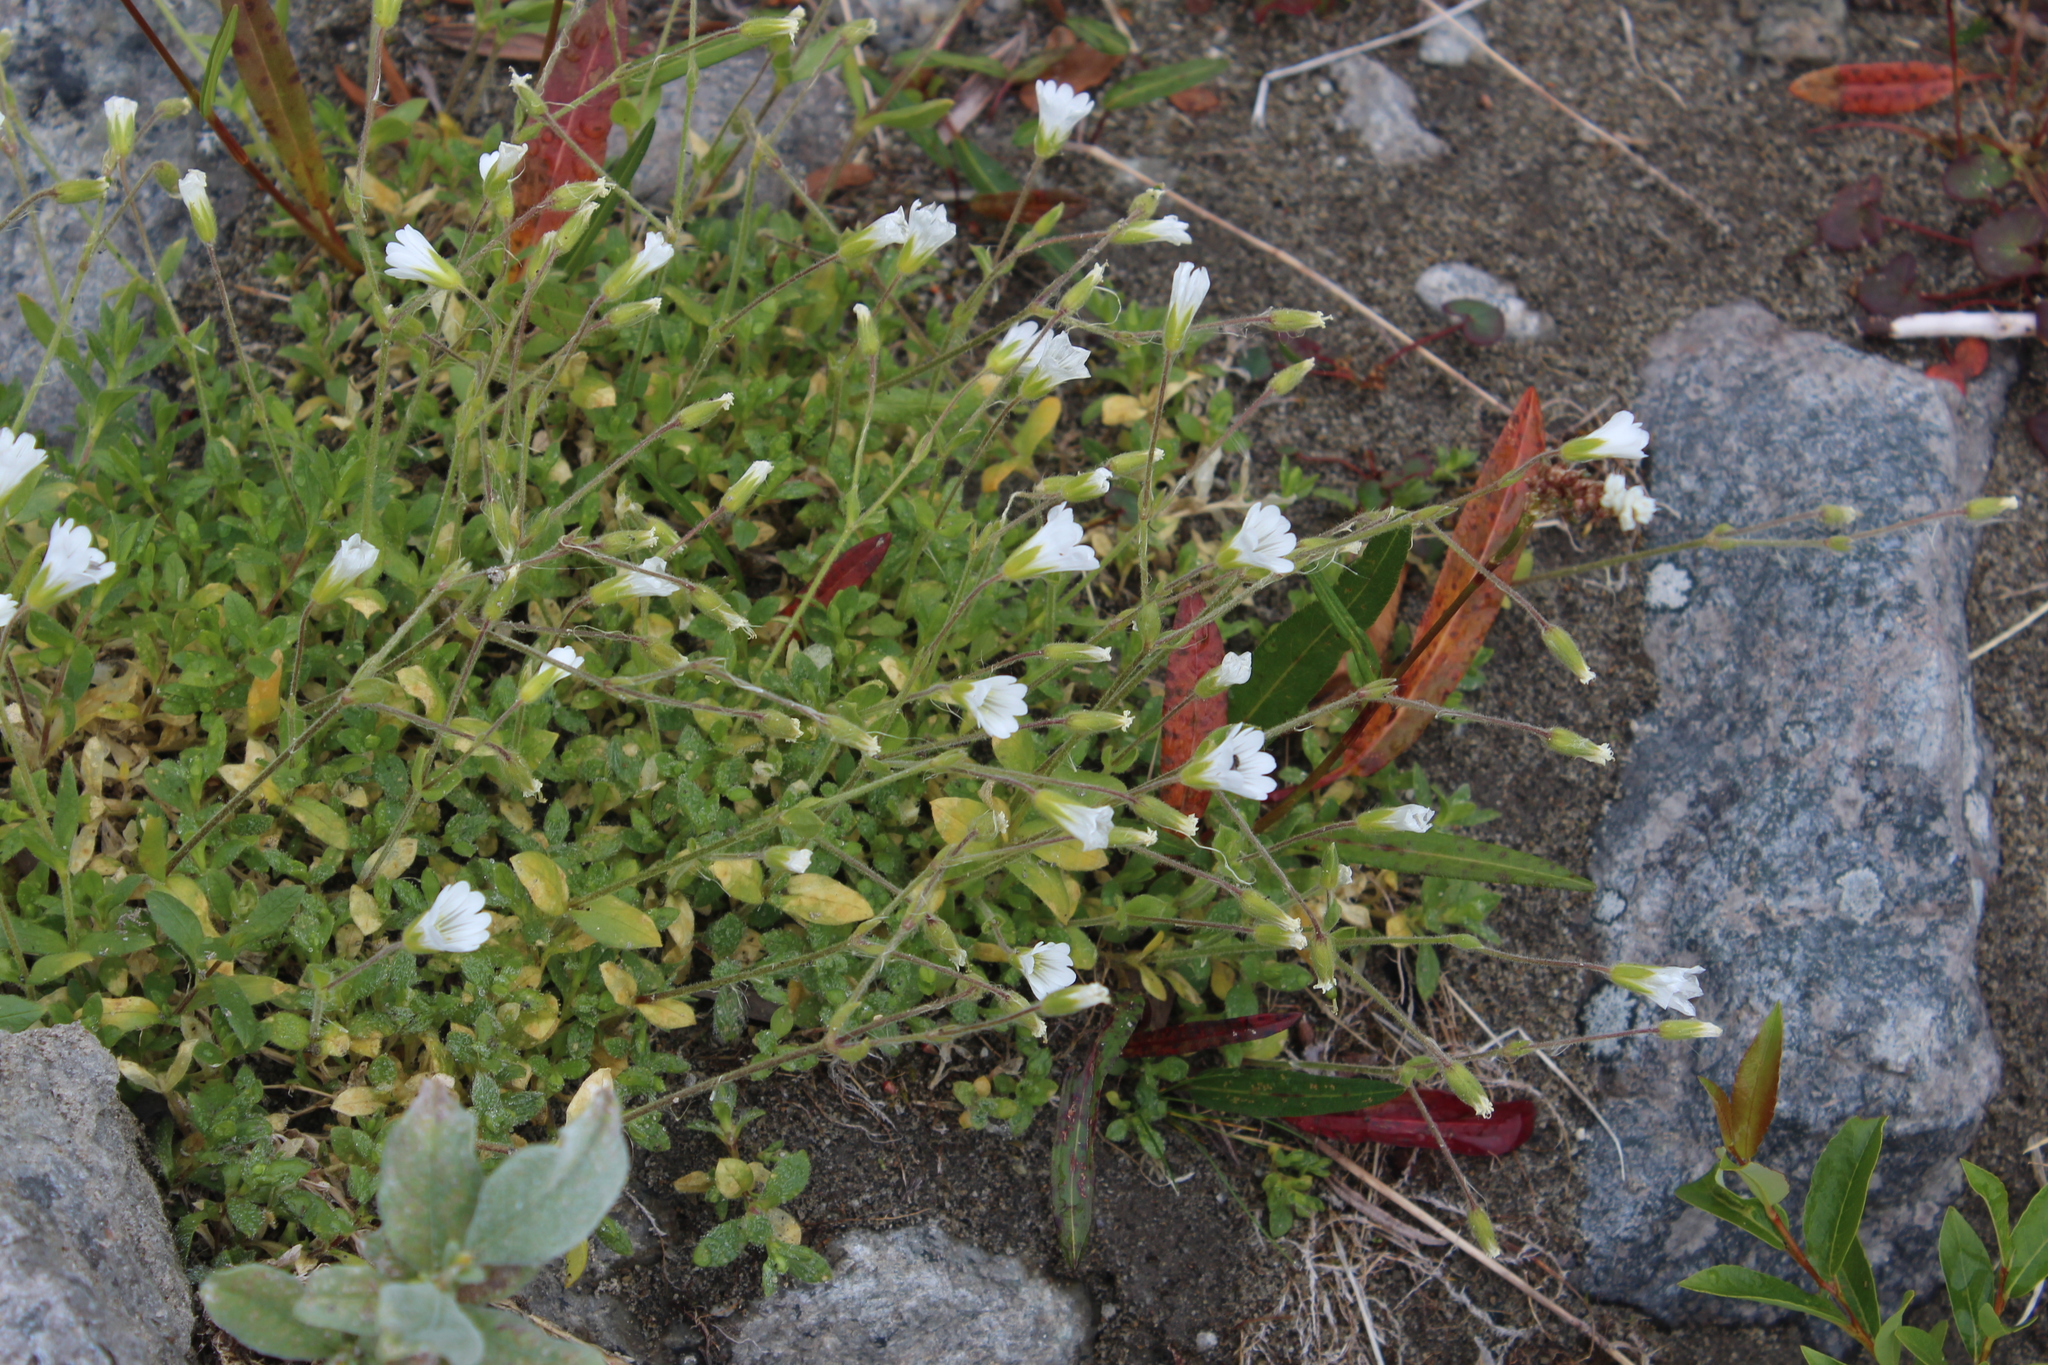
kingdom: Plantae
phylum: Tracheophyta
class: Magnoliopsida
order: Caryophyllales
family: Caryophyllaceae
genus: Cerastium
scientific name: Cerastium alpinum
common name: Alpine mouse-ear
